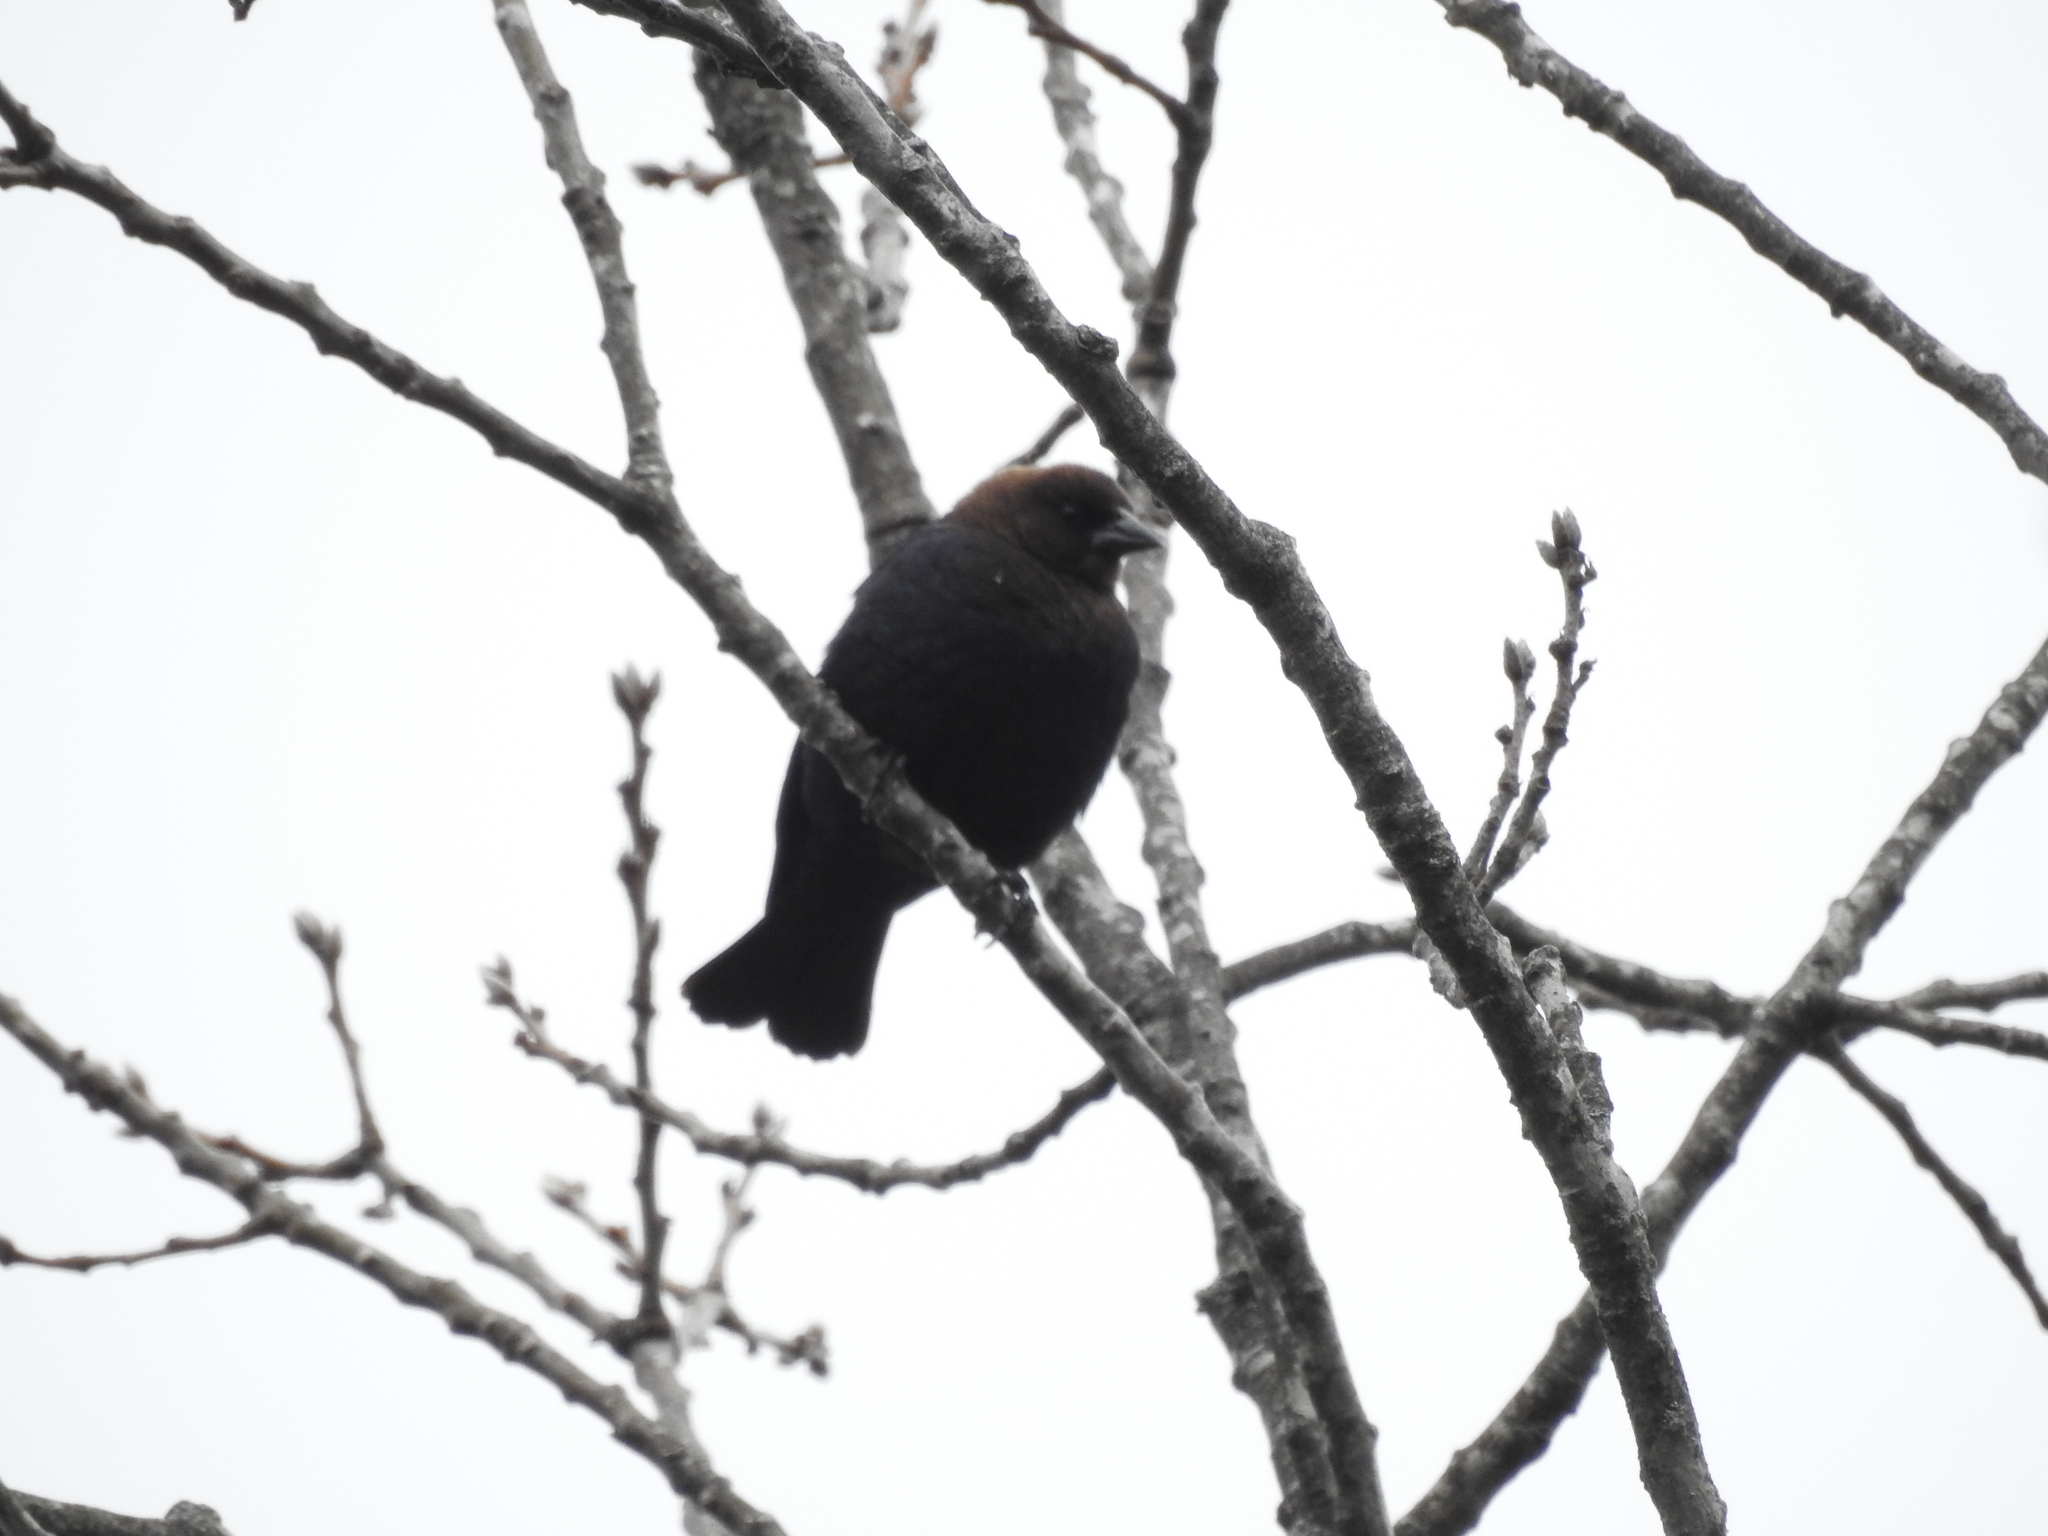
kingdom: Animalia
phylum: Chordata
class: Aves
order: Passeriformes
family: Icteridae
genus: Molothrus
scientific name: Molothrus ater
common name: Brown-headed cowbird
